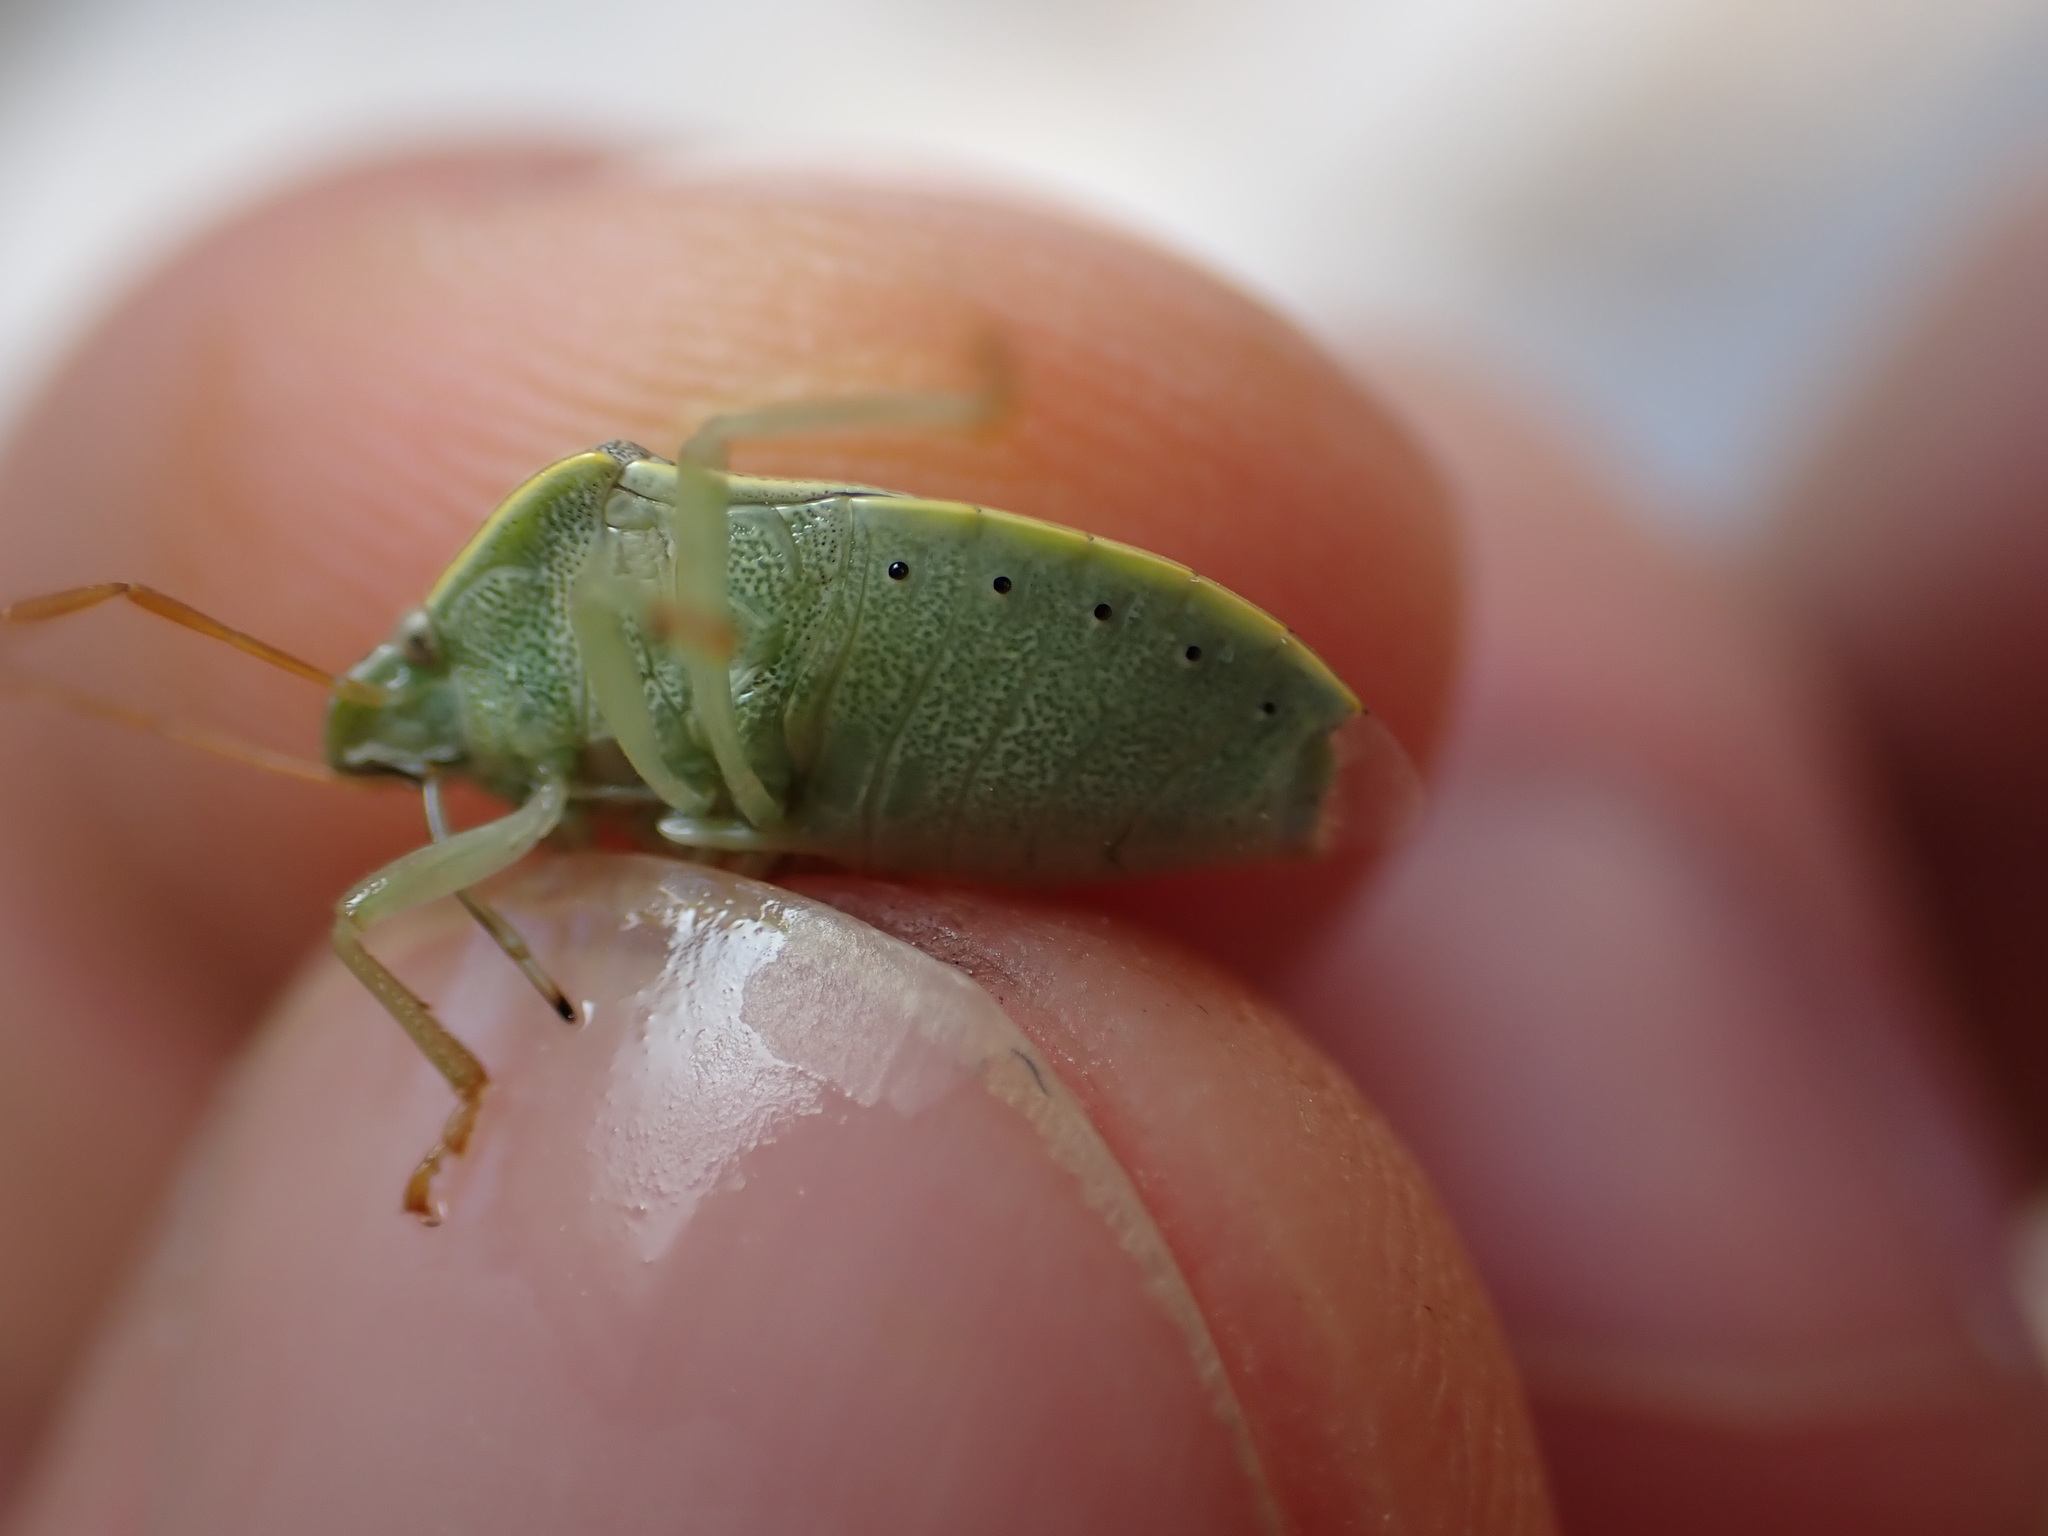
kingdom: Animalia
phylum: Arthropoda
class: Insecta
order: Hemiptera
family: Pentatomidae
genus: Piezodorus
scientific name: Piezodorus lituratus
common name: Stink bug
